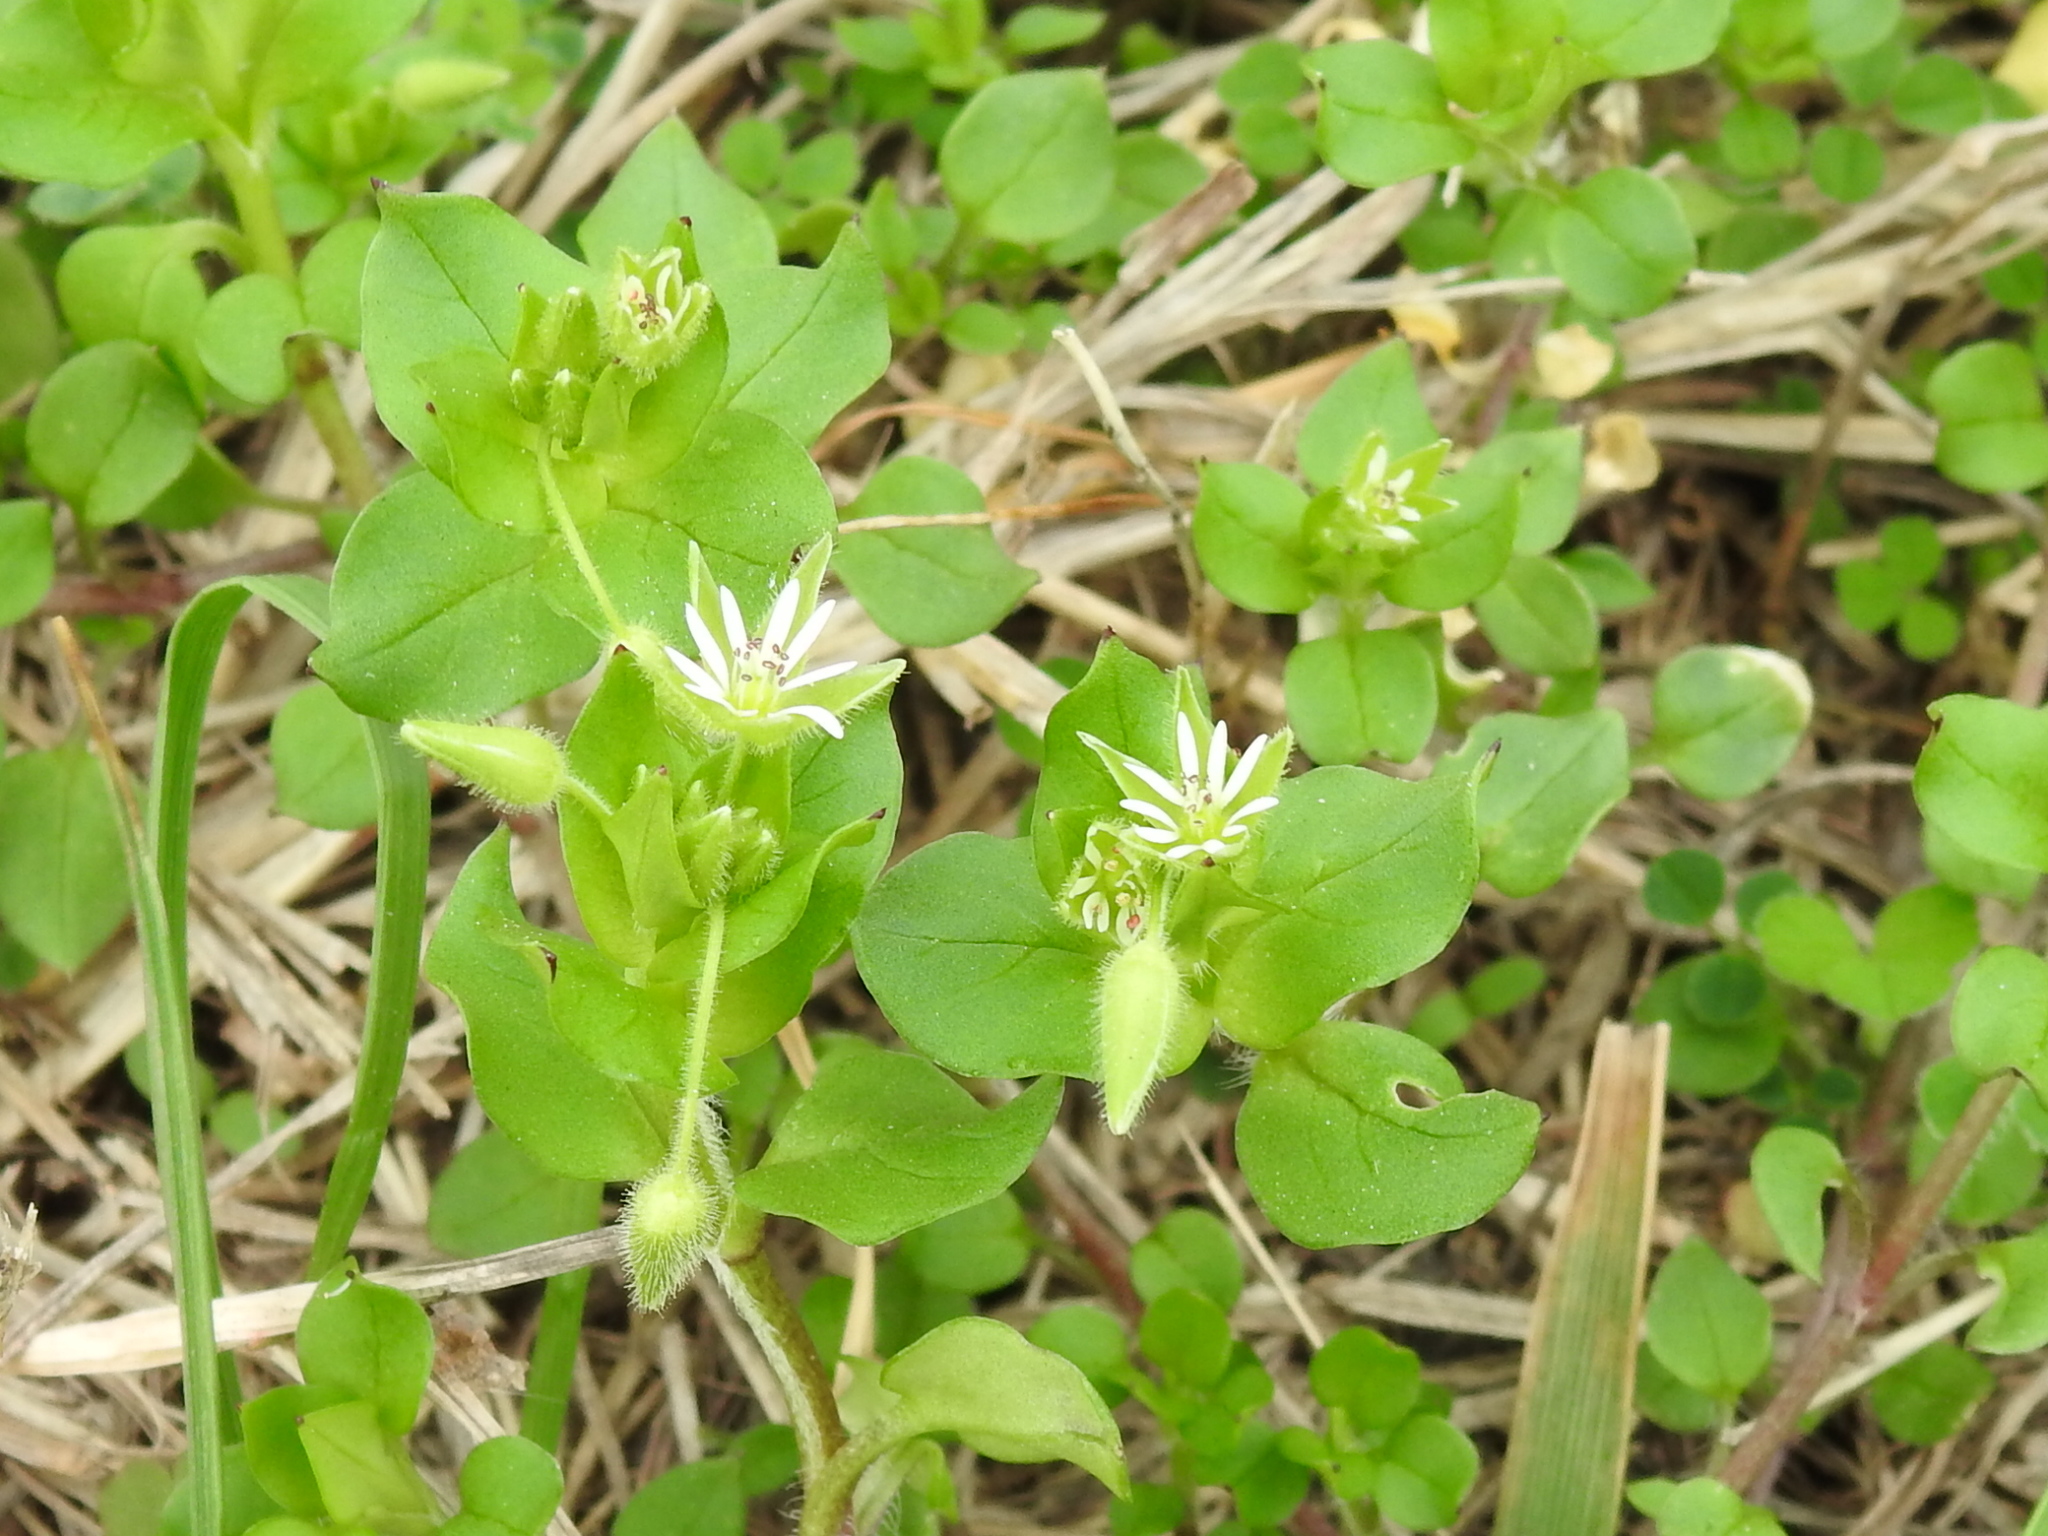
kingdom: Plantae
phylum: Tracheophyta
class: Magnoliopsida
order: Caryophyllales
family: Caryophyllaceae
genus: Stellaria
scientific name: Stellaria media
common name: Common chickweed
